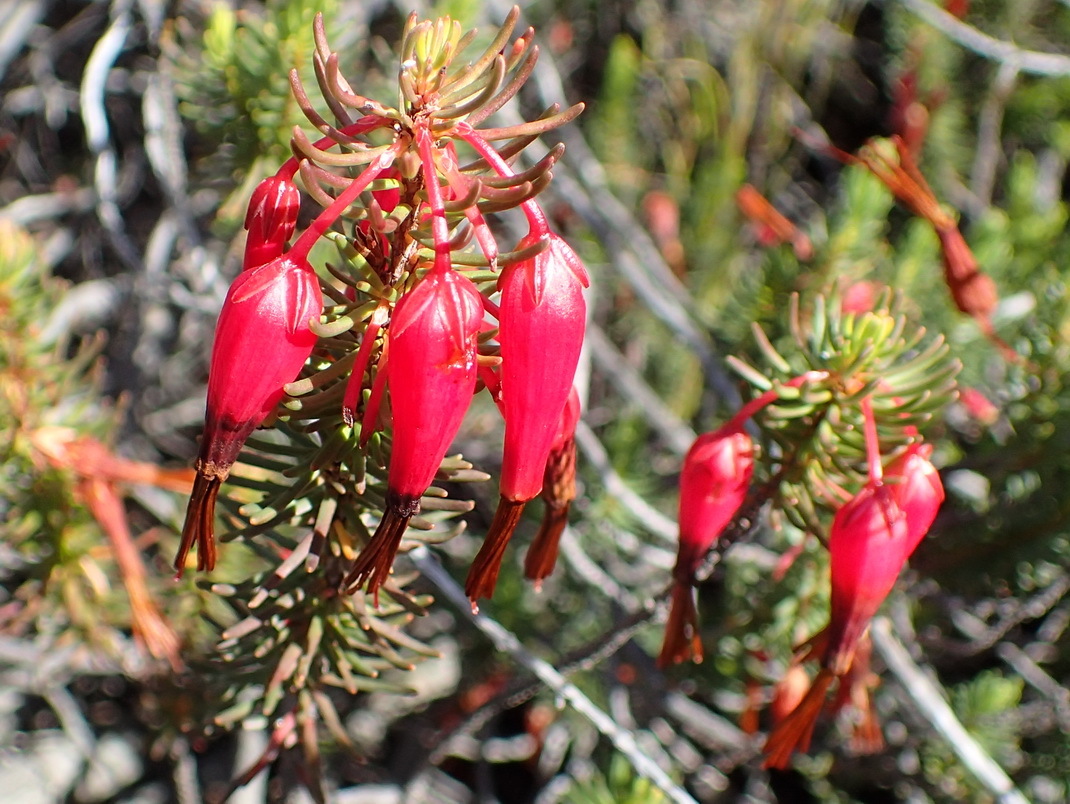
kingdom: Plantae
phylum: Tracheophyta
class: Magnoliopsida
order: Ericales
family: Ericaceae
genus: Erica
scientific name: Erica plukenetii
